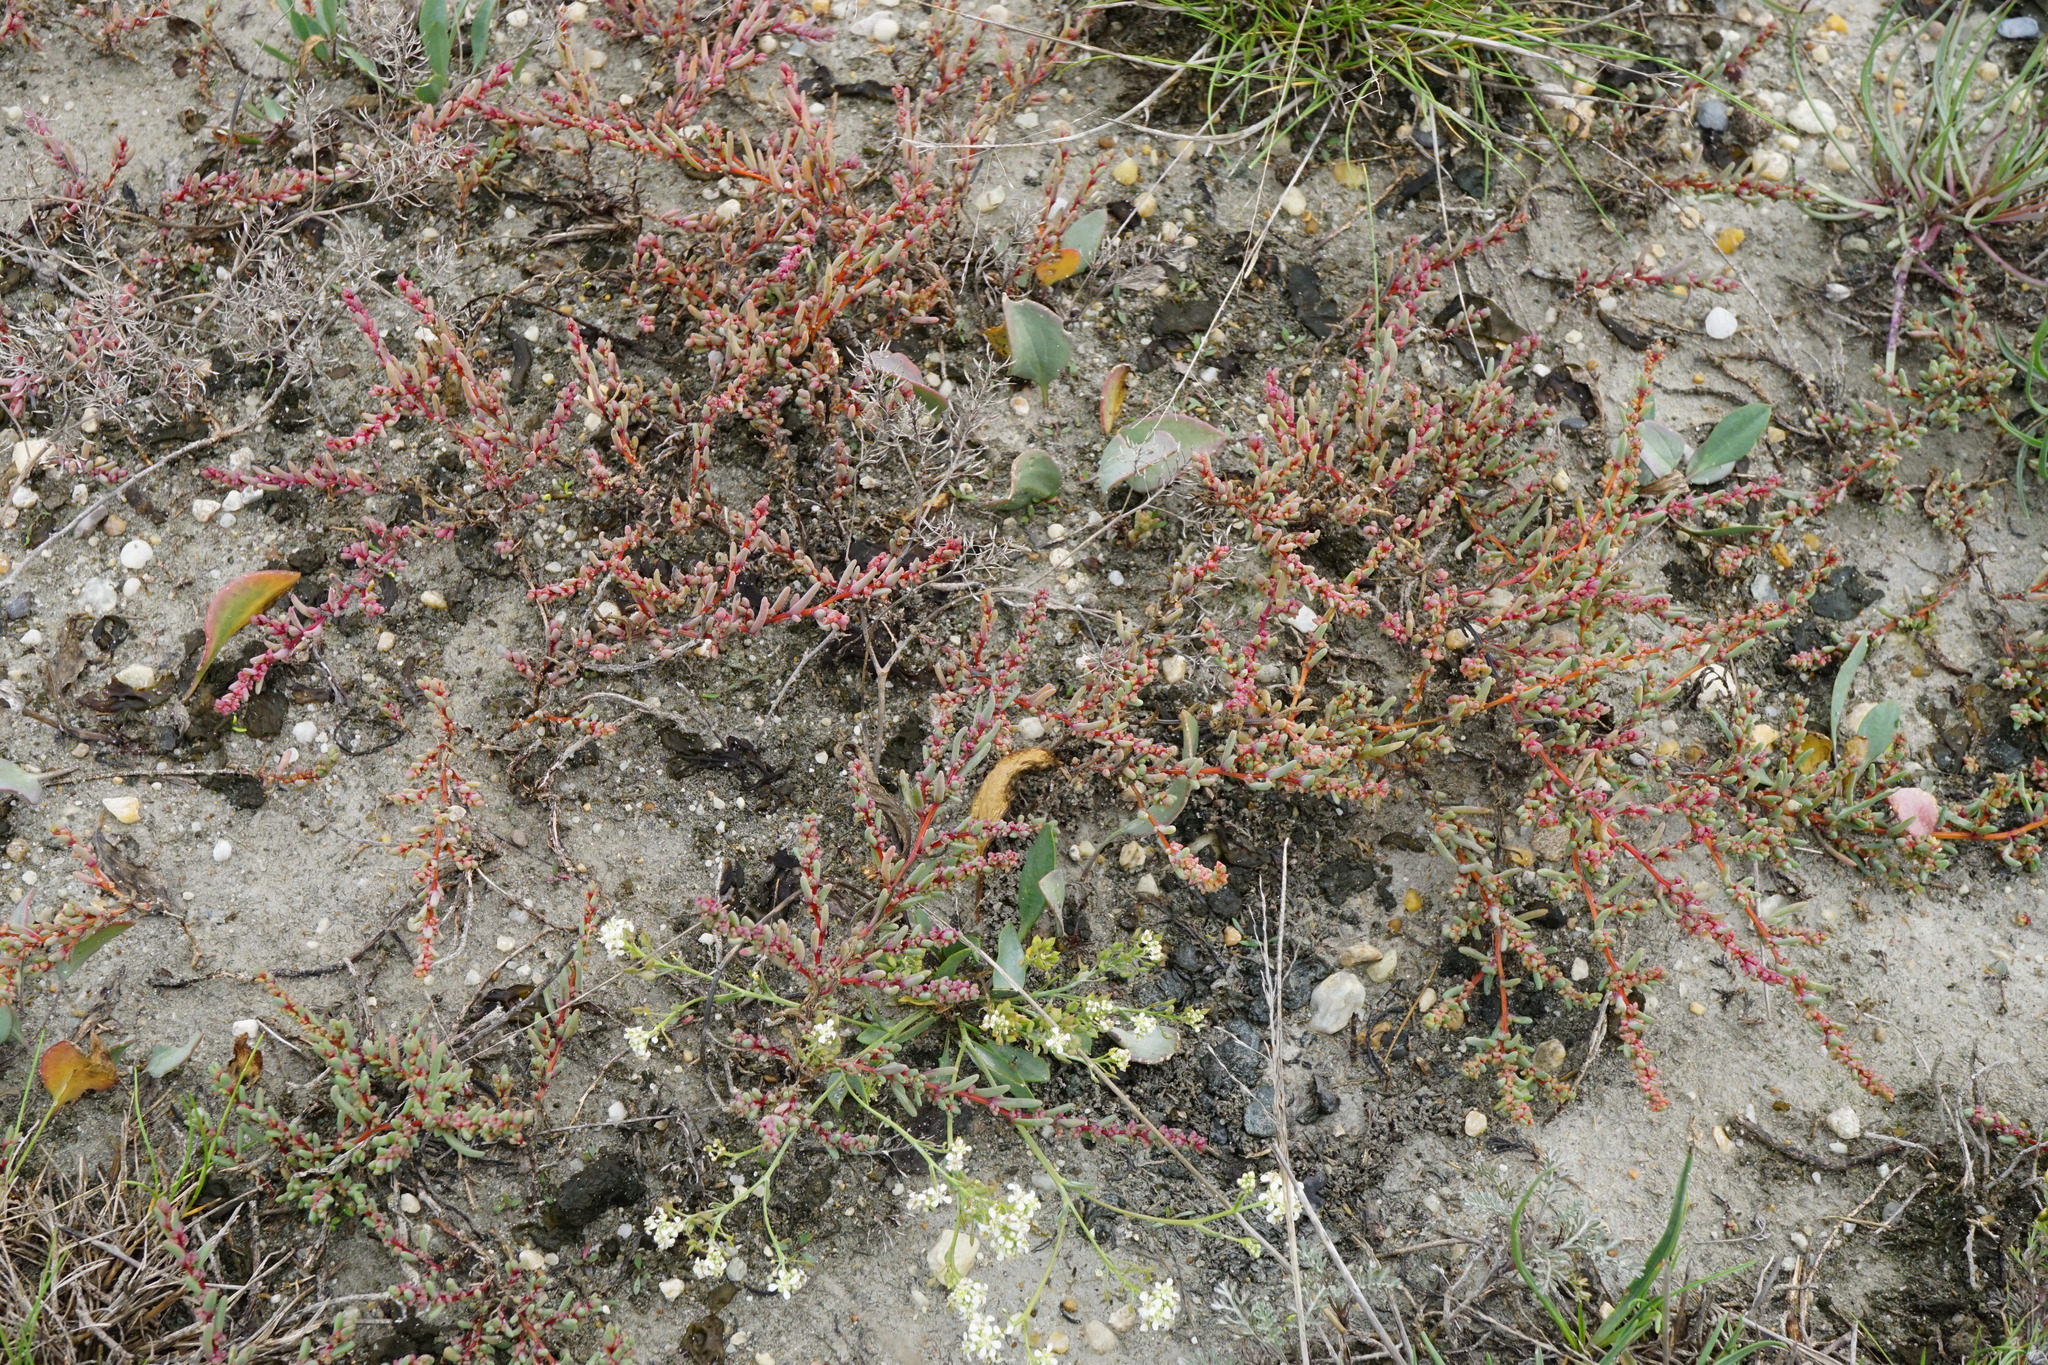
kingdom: Plantae
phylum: Tracheophyta
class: Magnoliopsida
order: Caryophyllales
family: Amaranthaceae
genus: Suaeda
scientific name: Suaeda pannonica
